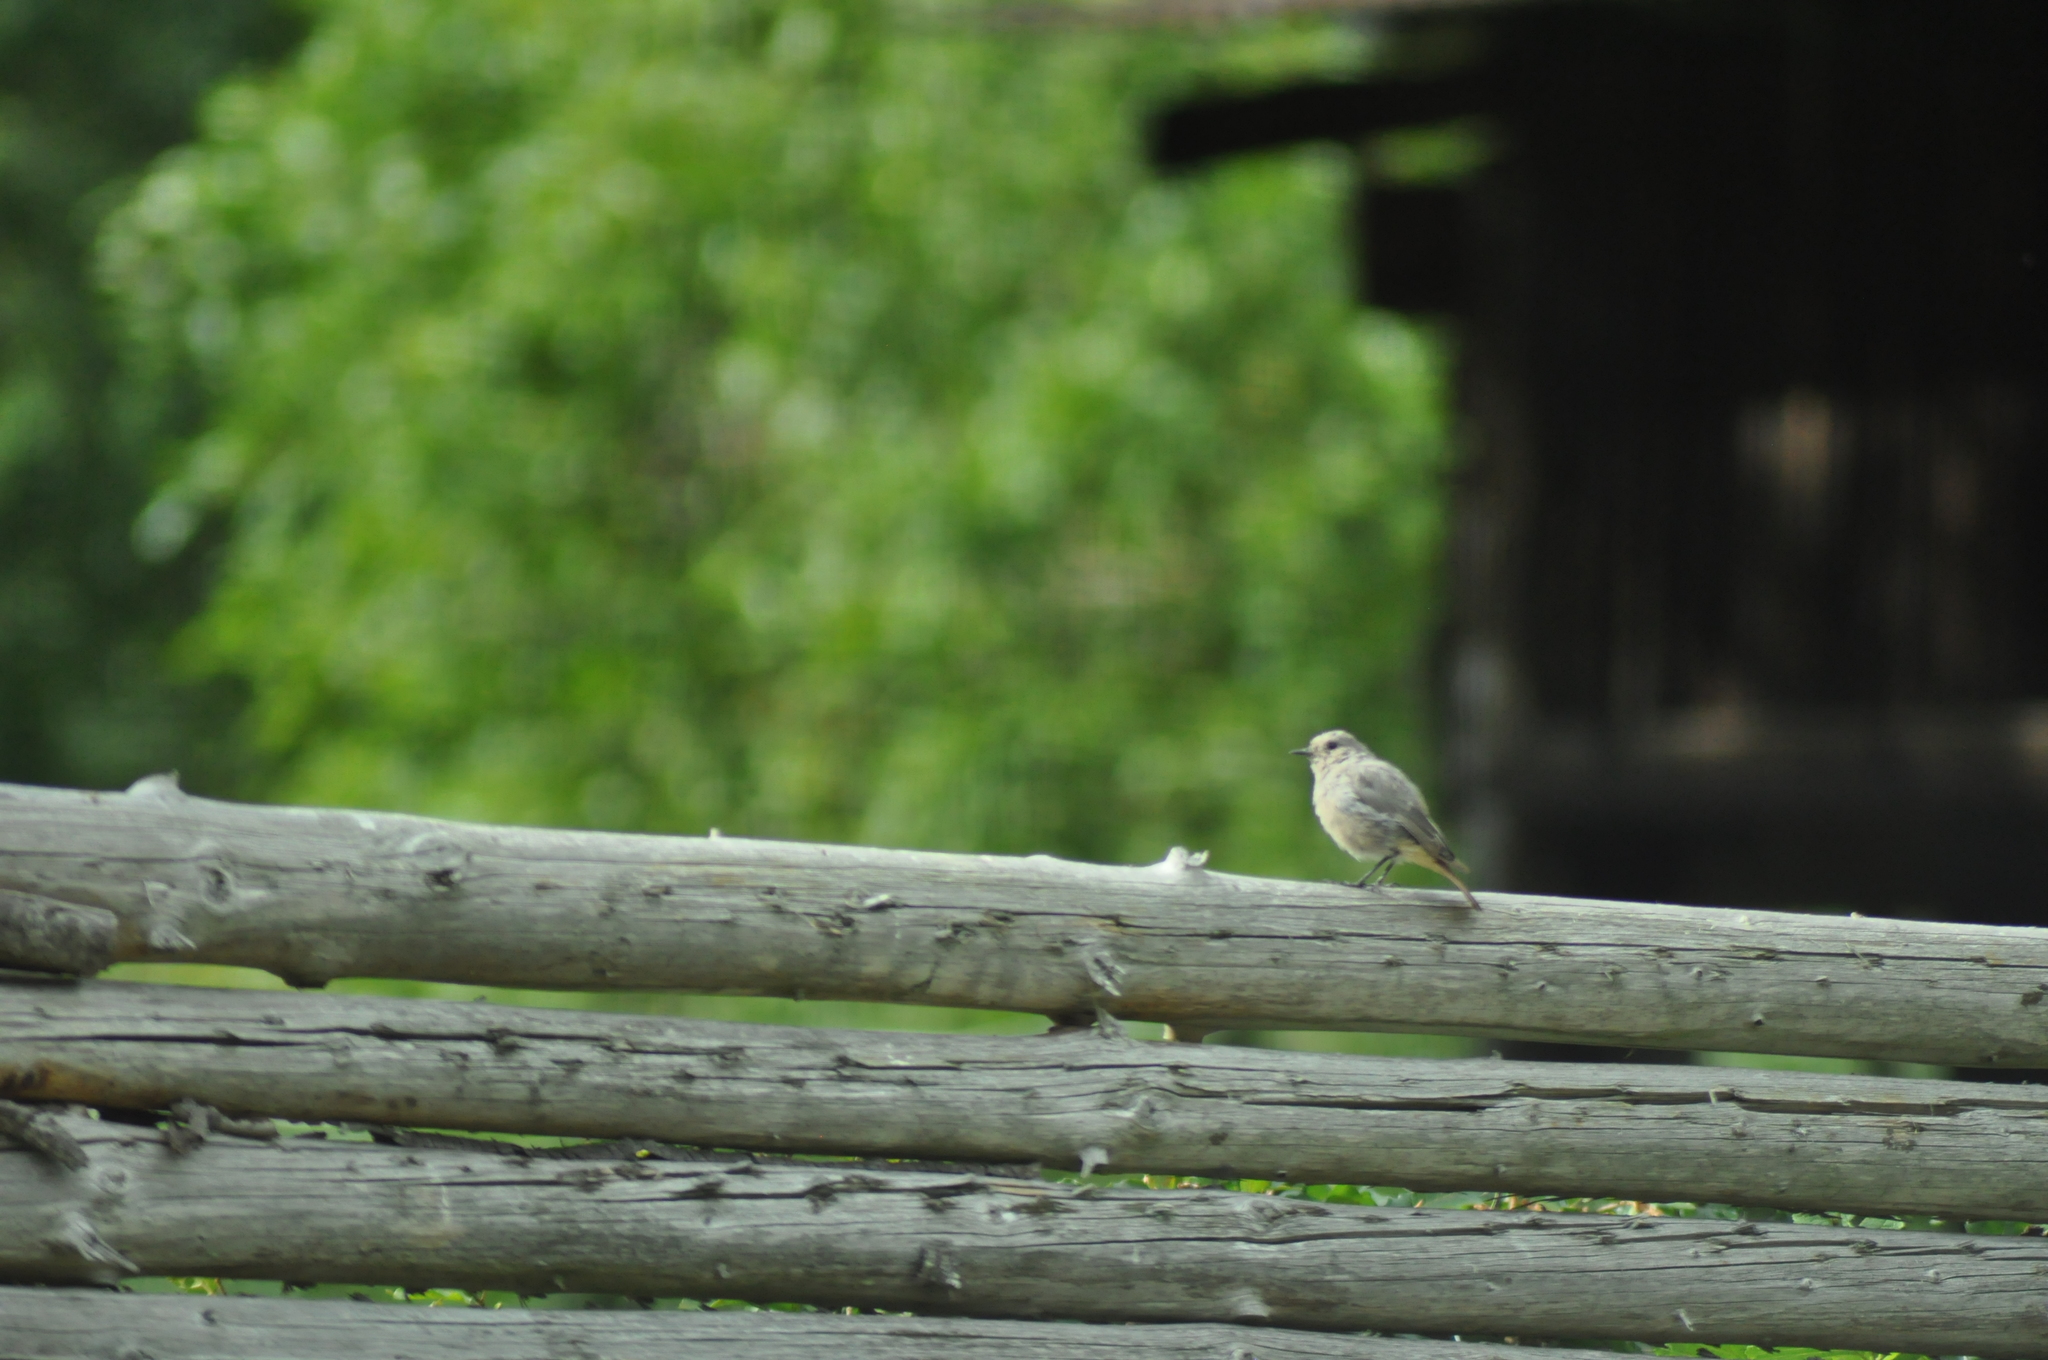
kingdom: Animalia
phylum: Chordata
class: Aves
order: Passeriformes
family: Muscicapidae
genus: Phoenicurus
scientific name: Phoenicurus ochruros
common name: Black redstart
